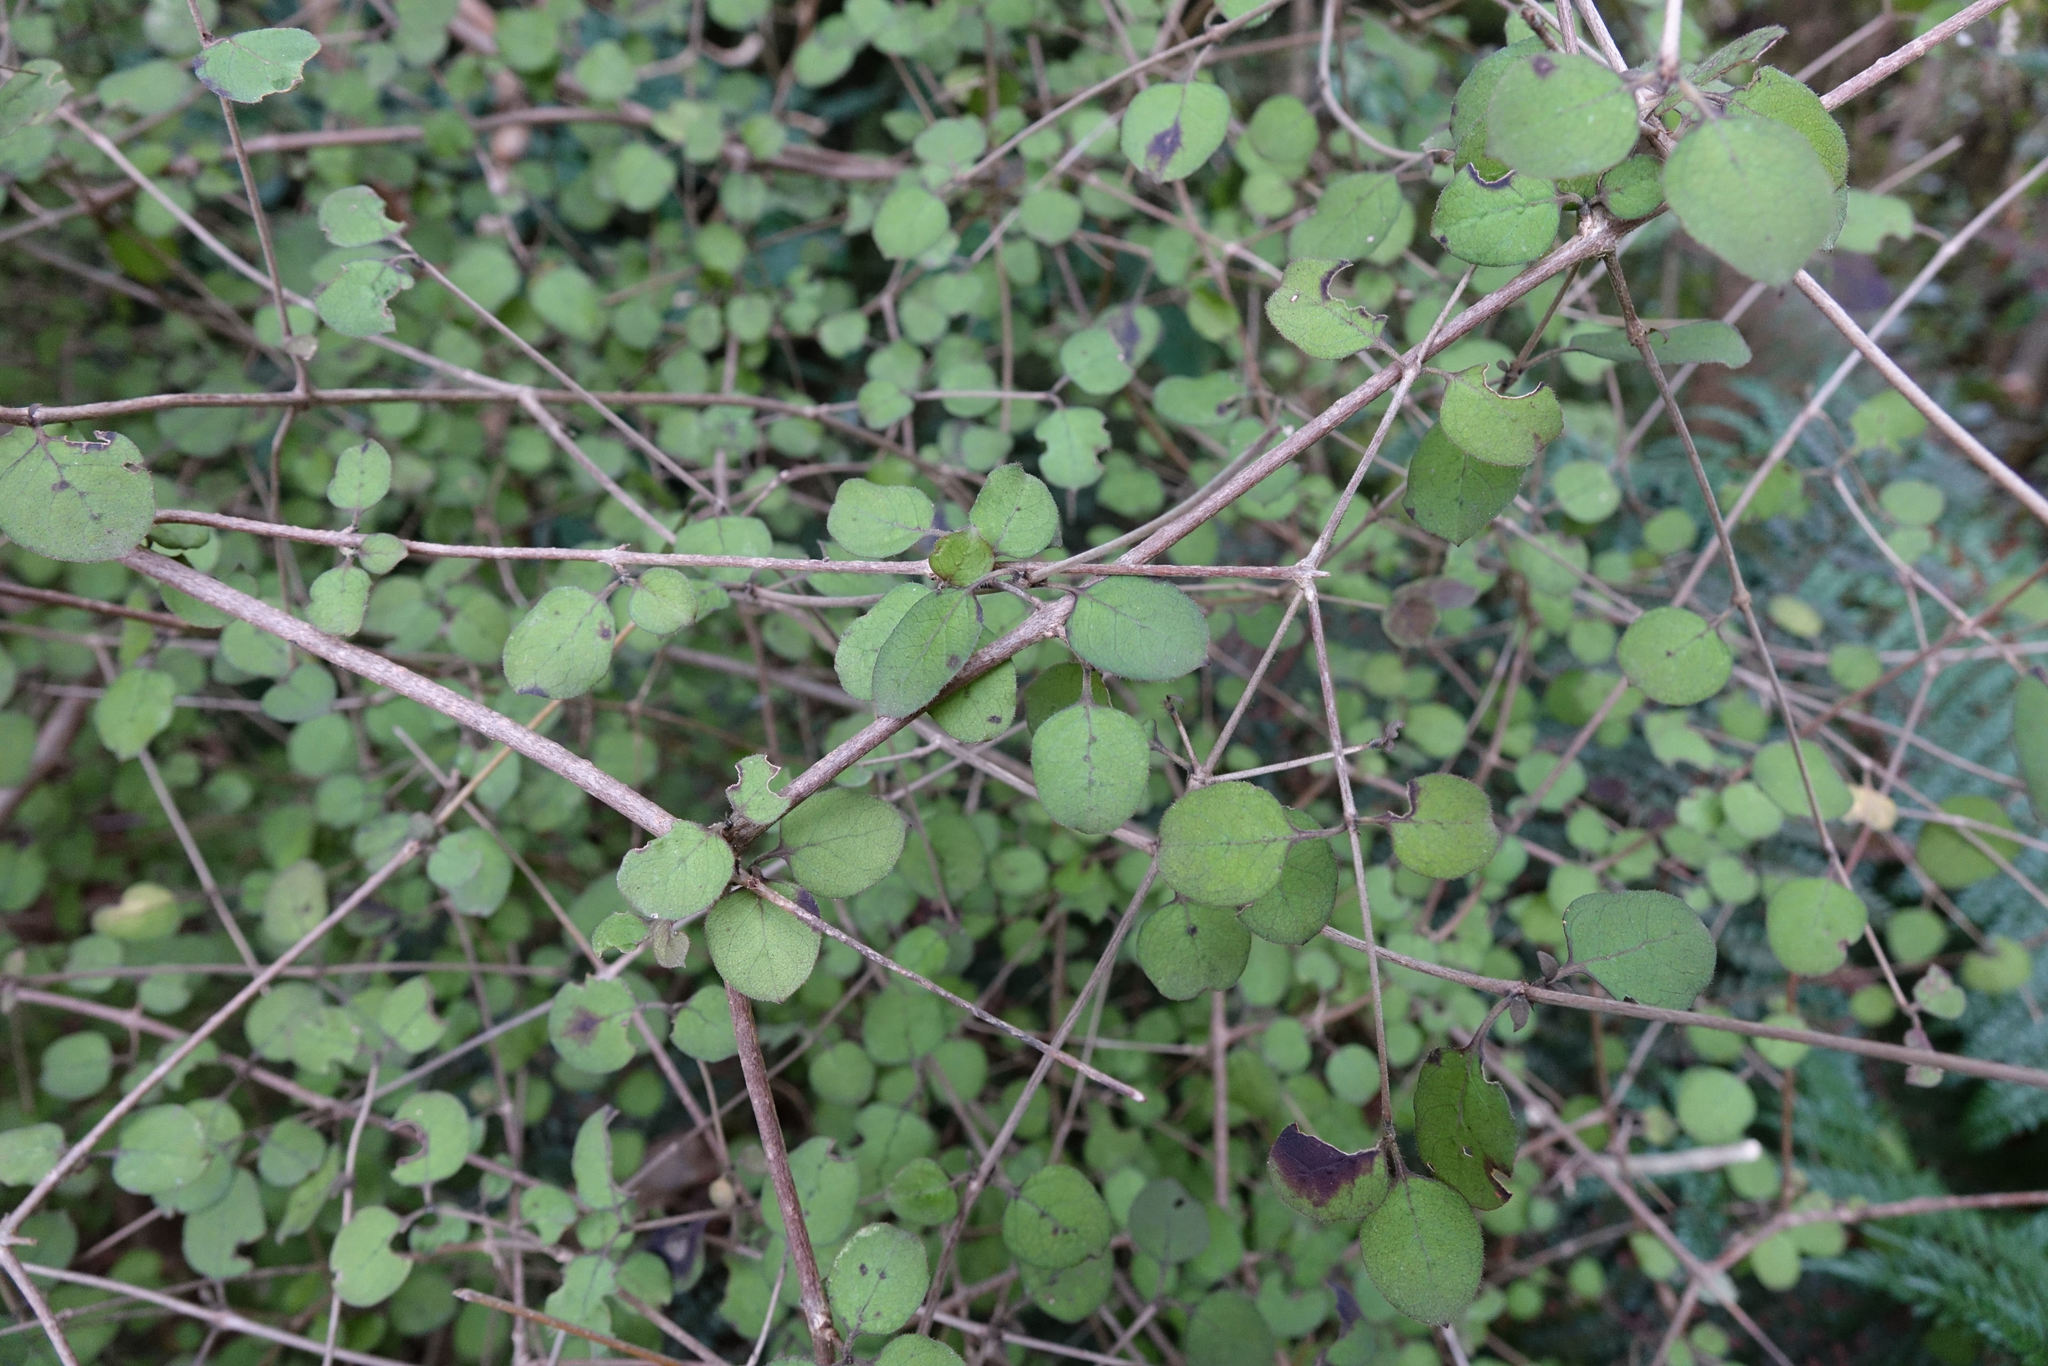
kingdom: Plantae
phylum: Tracheophyta
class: Magnoliopsida
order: Gentianales
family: Rubiaceae
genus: Coprosma
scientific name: Coprosma rotundifolia
